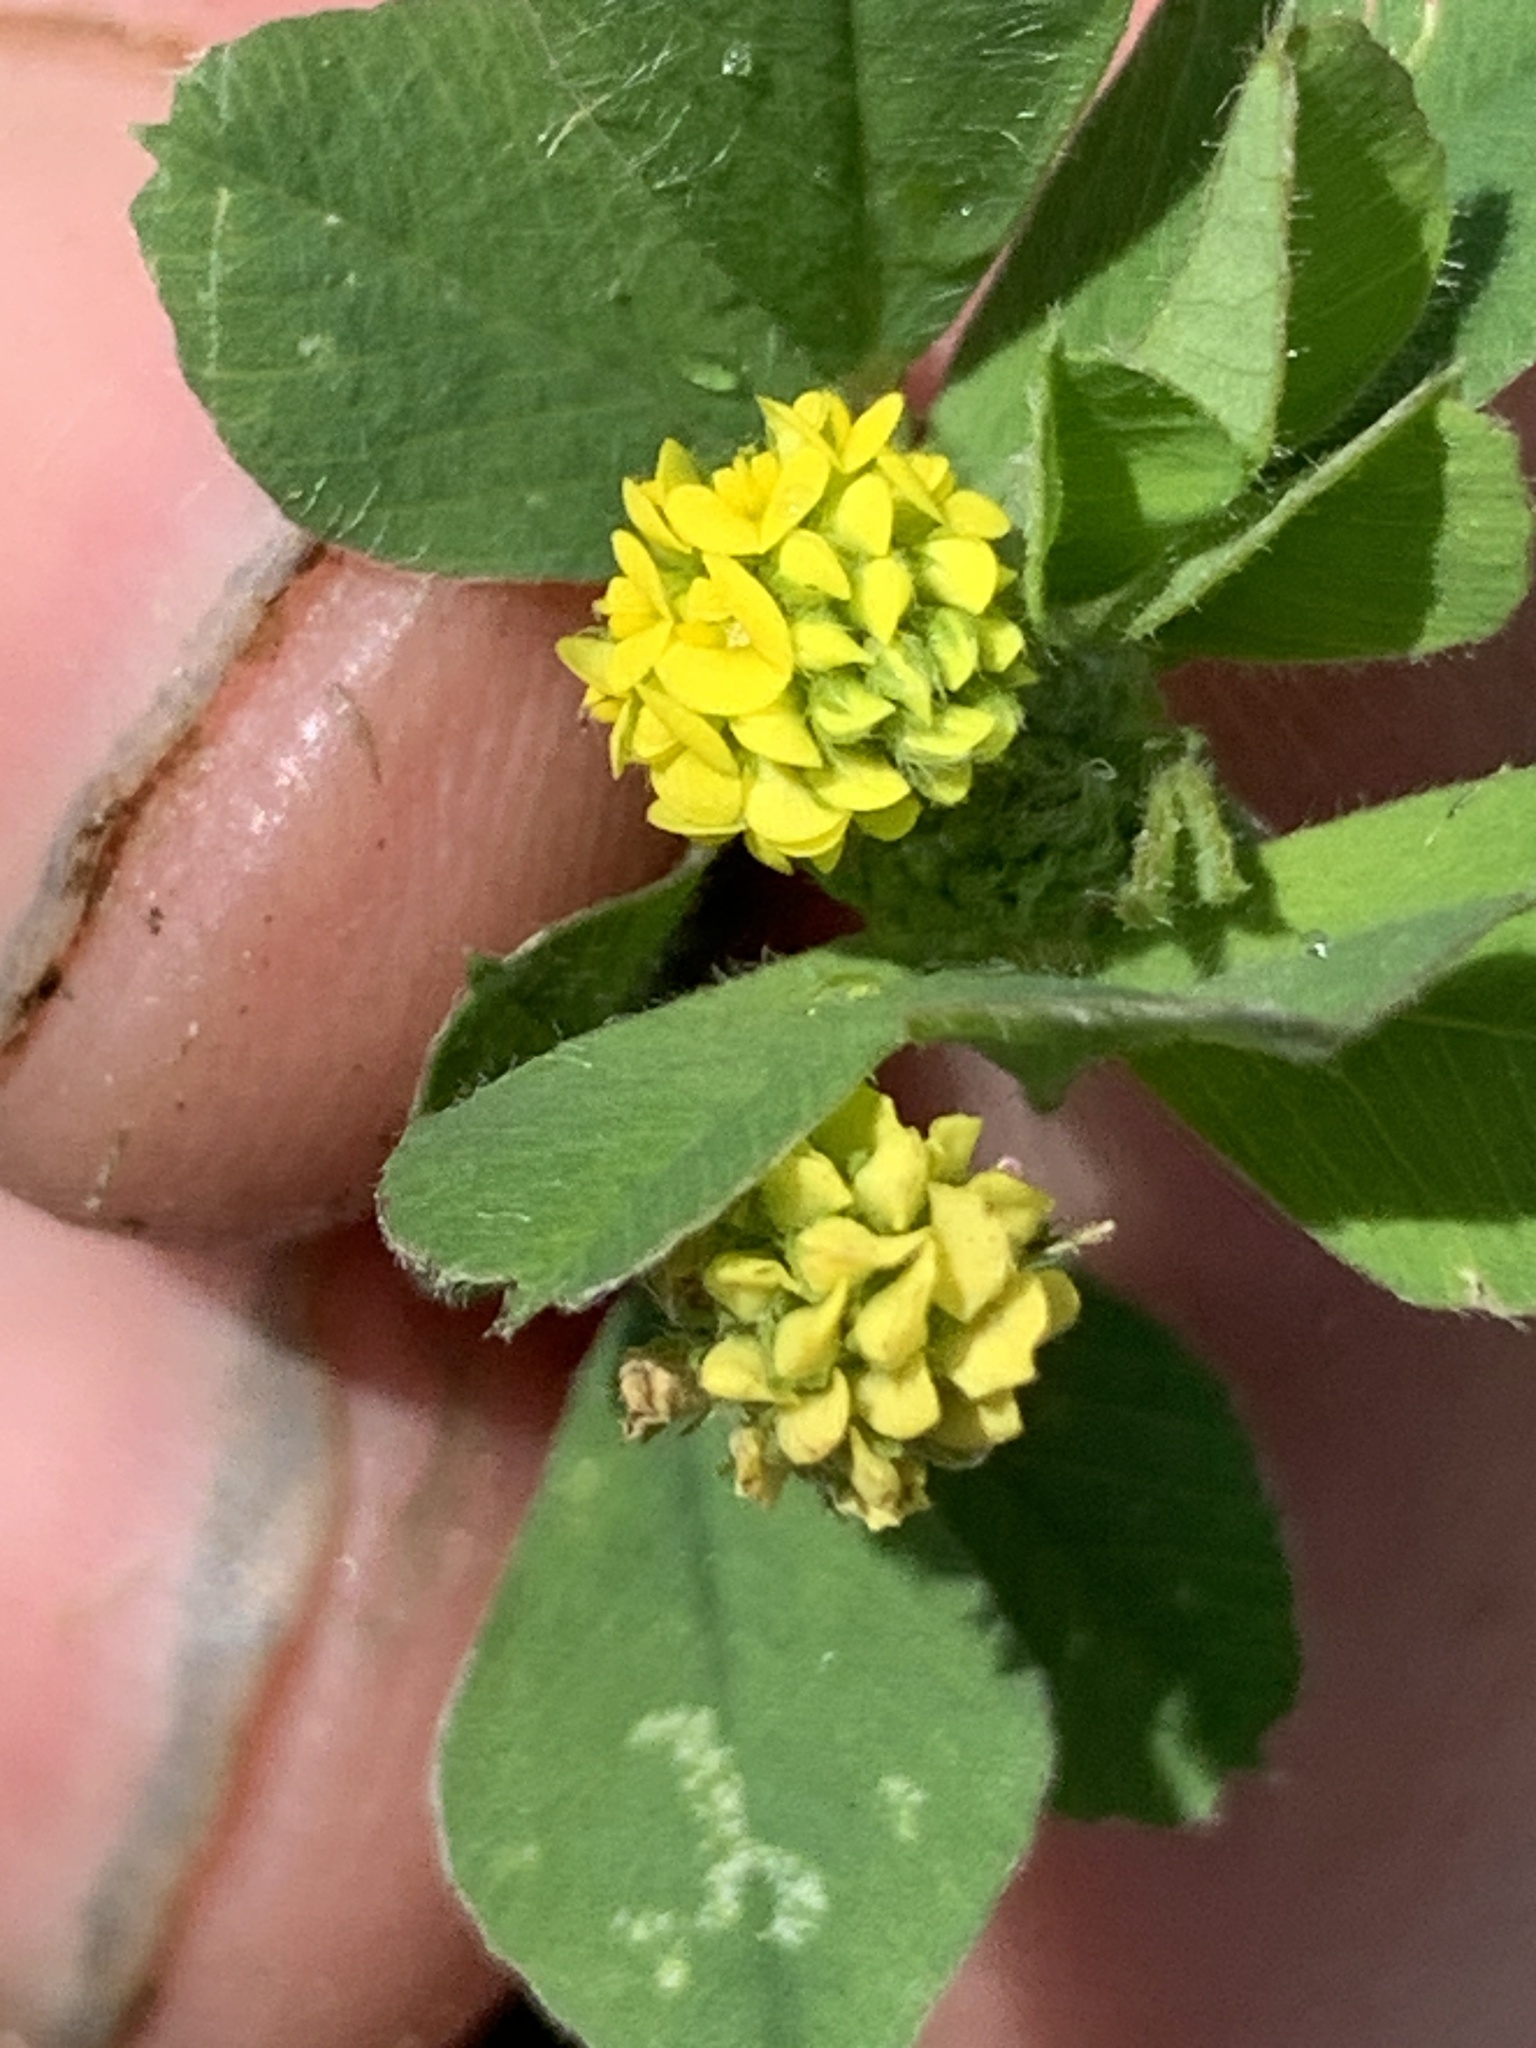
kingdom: Plantae
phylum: Tracheophyta
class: Magnoliopsida
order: Fabales
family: Fabaceae
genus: Medicago
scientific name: Medicago lupulina
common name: Black medick
